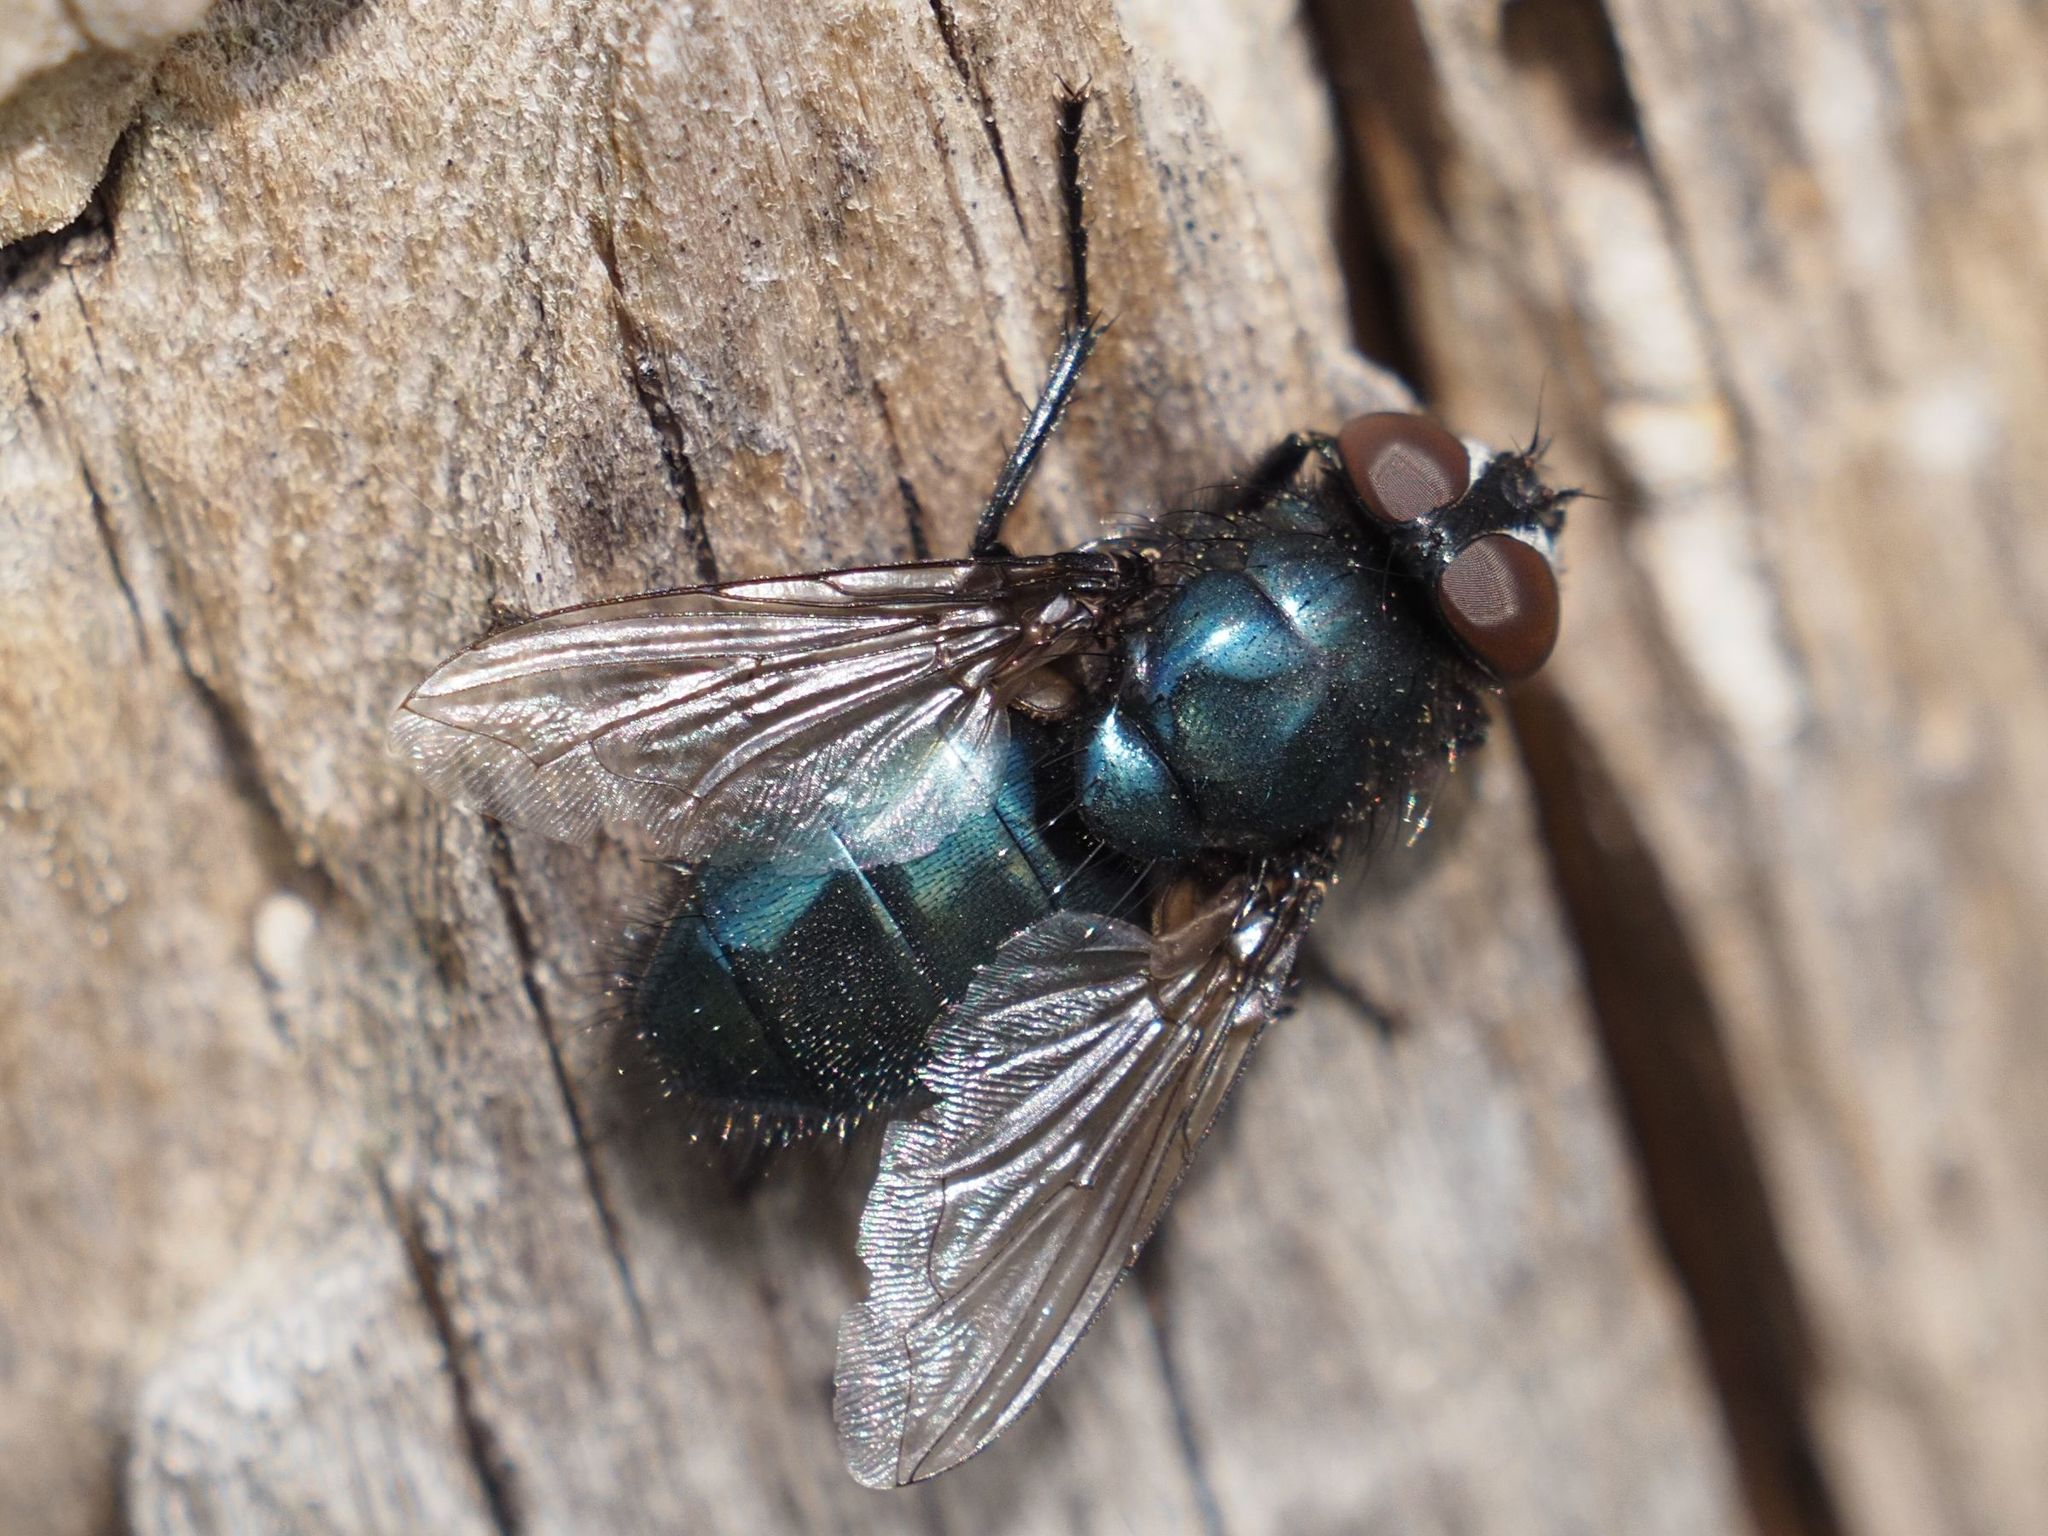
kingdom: Animalia
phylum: Arthropoda
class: Insecta
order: Diptera
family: Calliphoridae
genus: Protophormia
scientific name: Protophormia terraenovae
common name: Blackbottle
